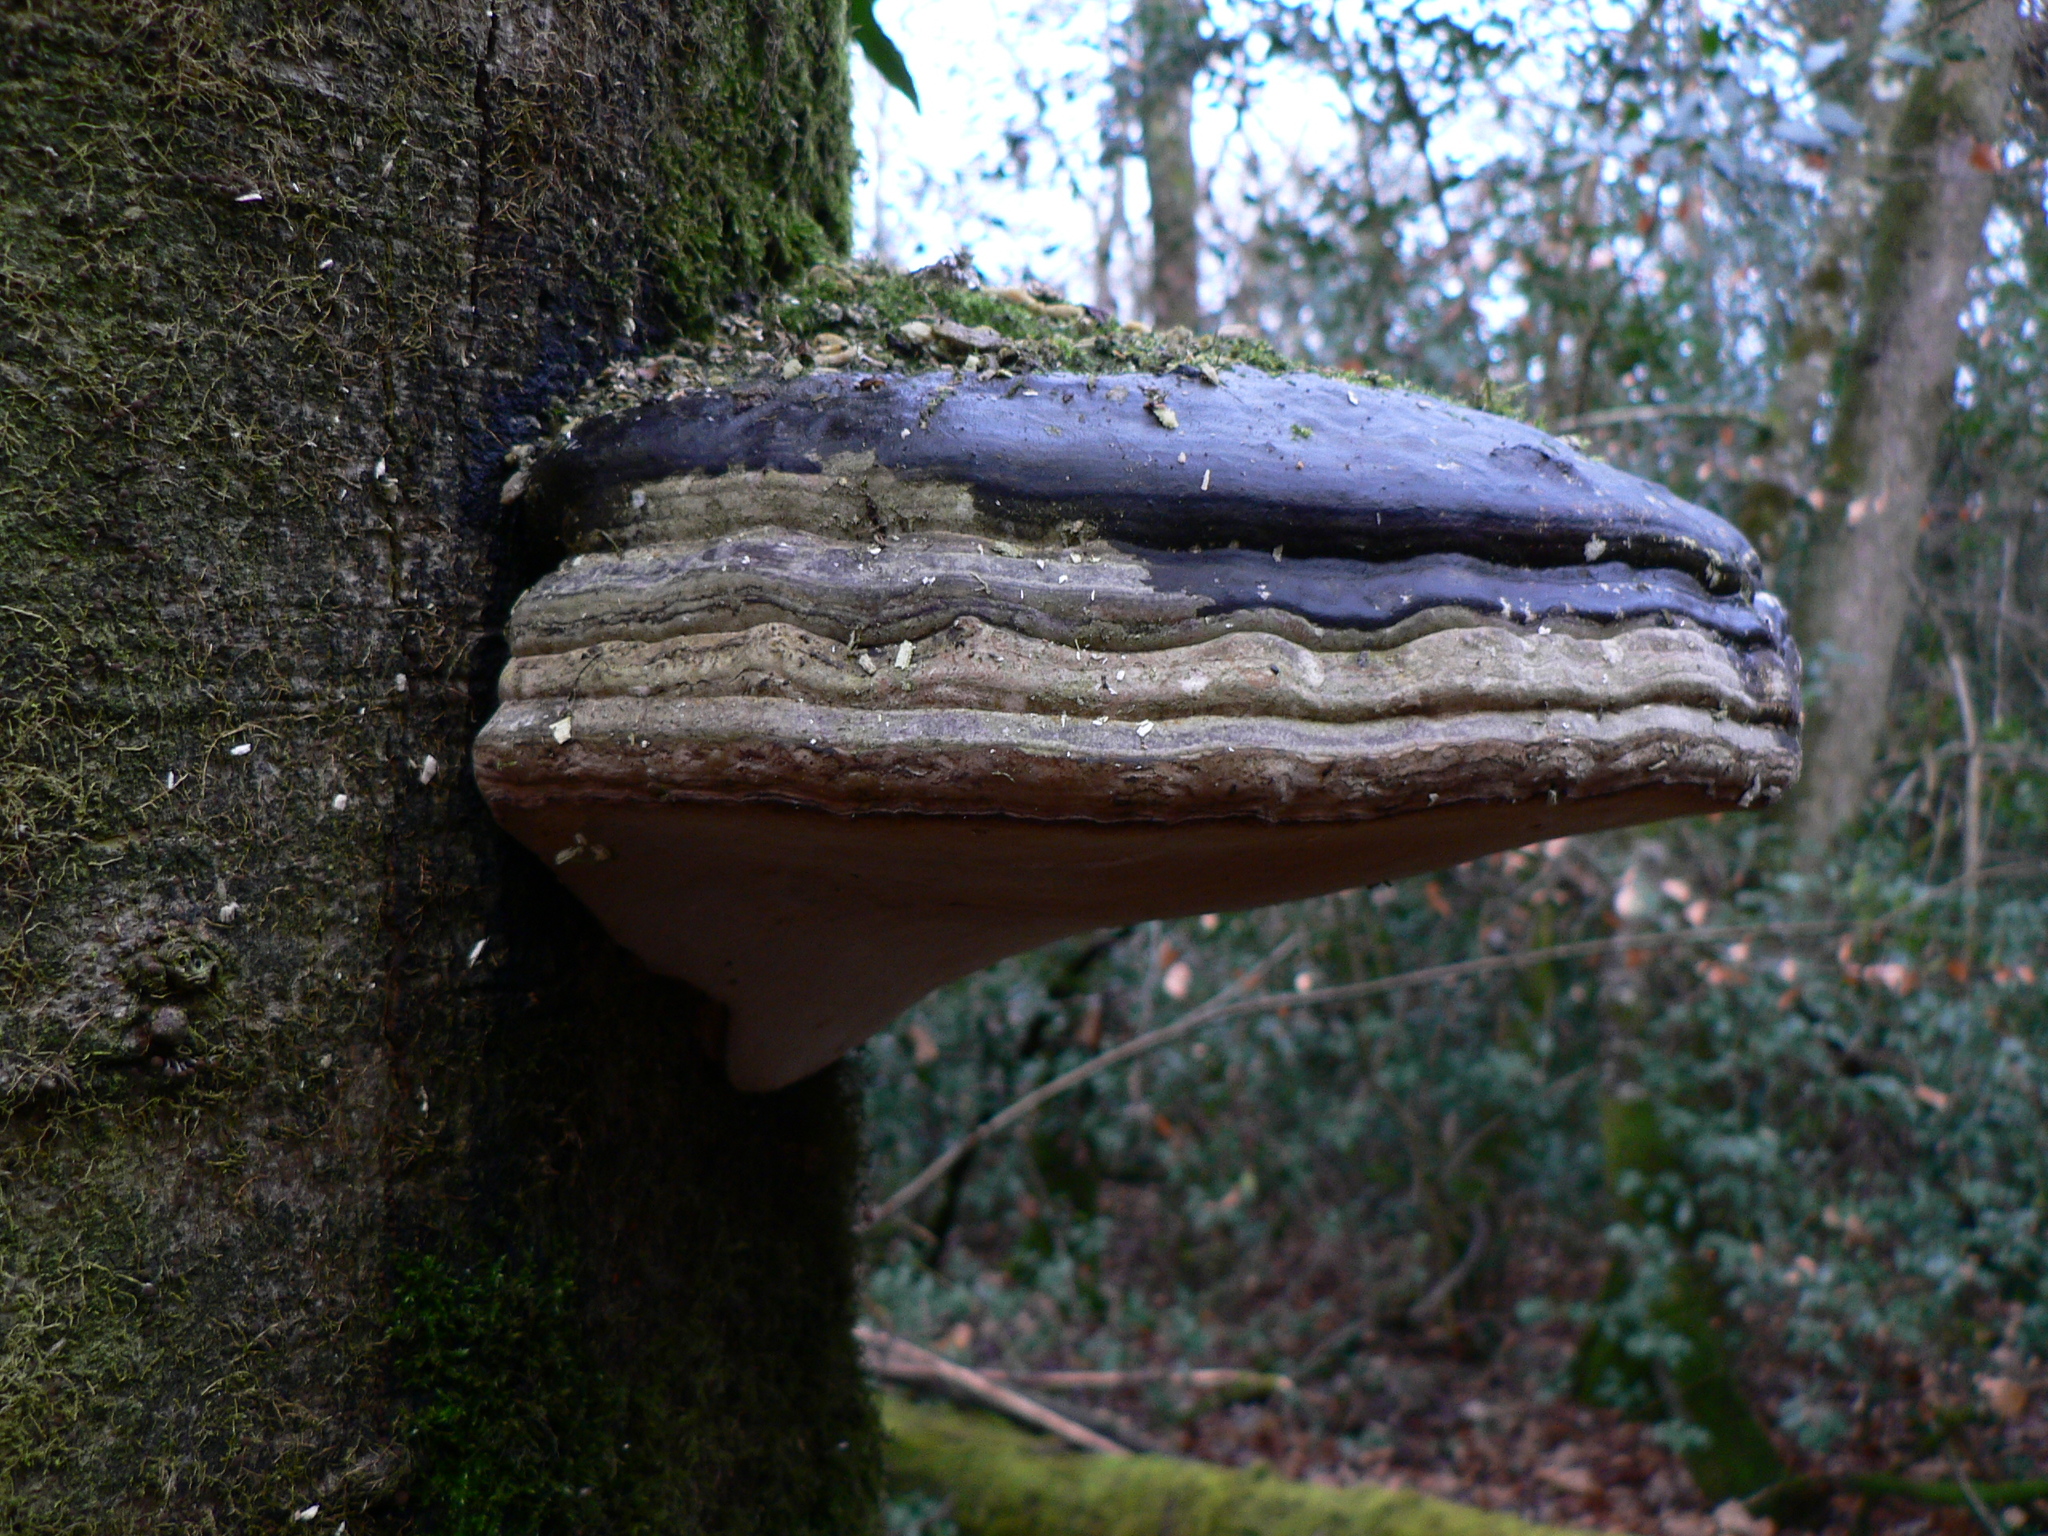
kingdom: Fungi
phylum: Basidiomycota
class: Agaricomycetes
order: Polyporales
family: Polyporaceae
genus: Fomes
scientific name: Fomes fomentarius
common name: Hoof fungus
